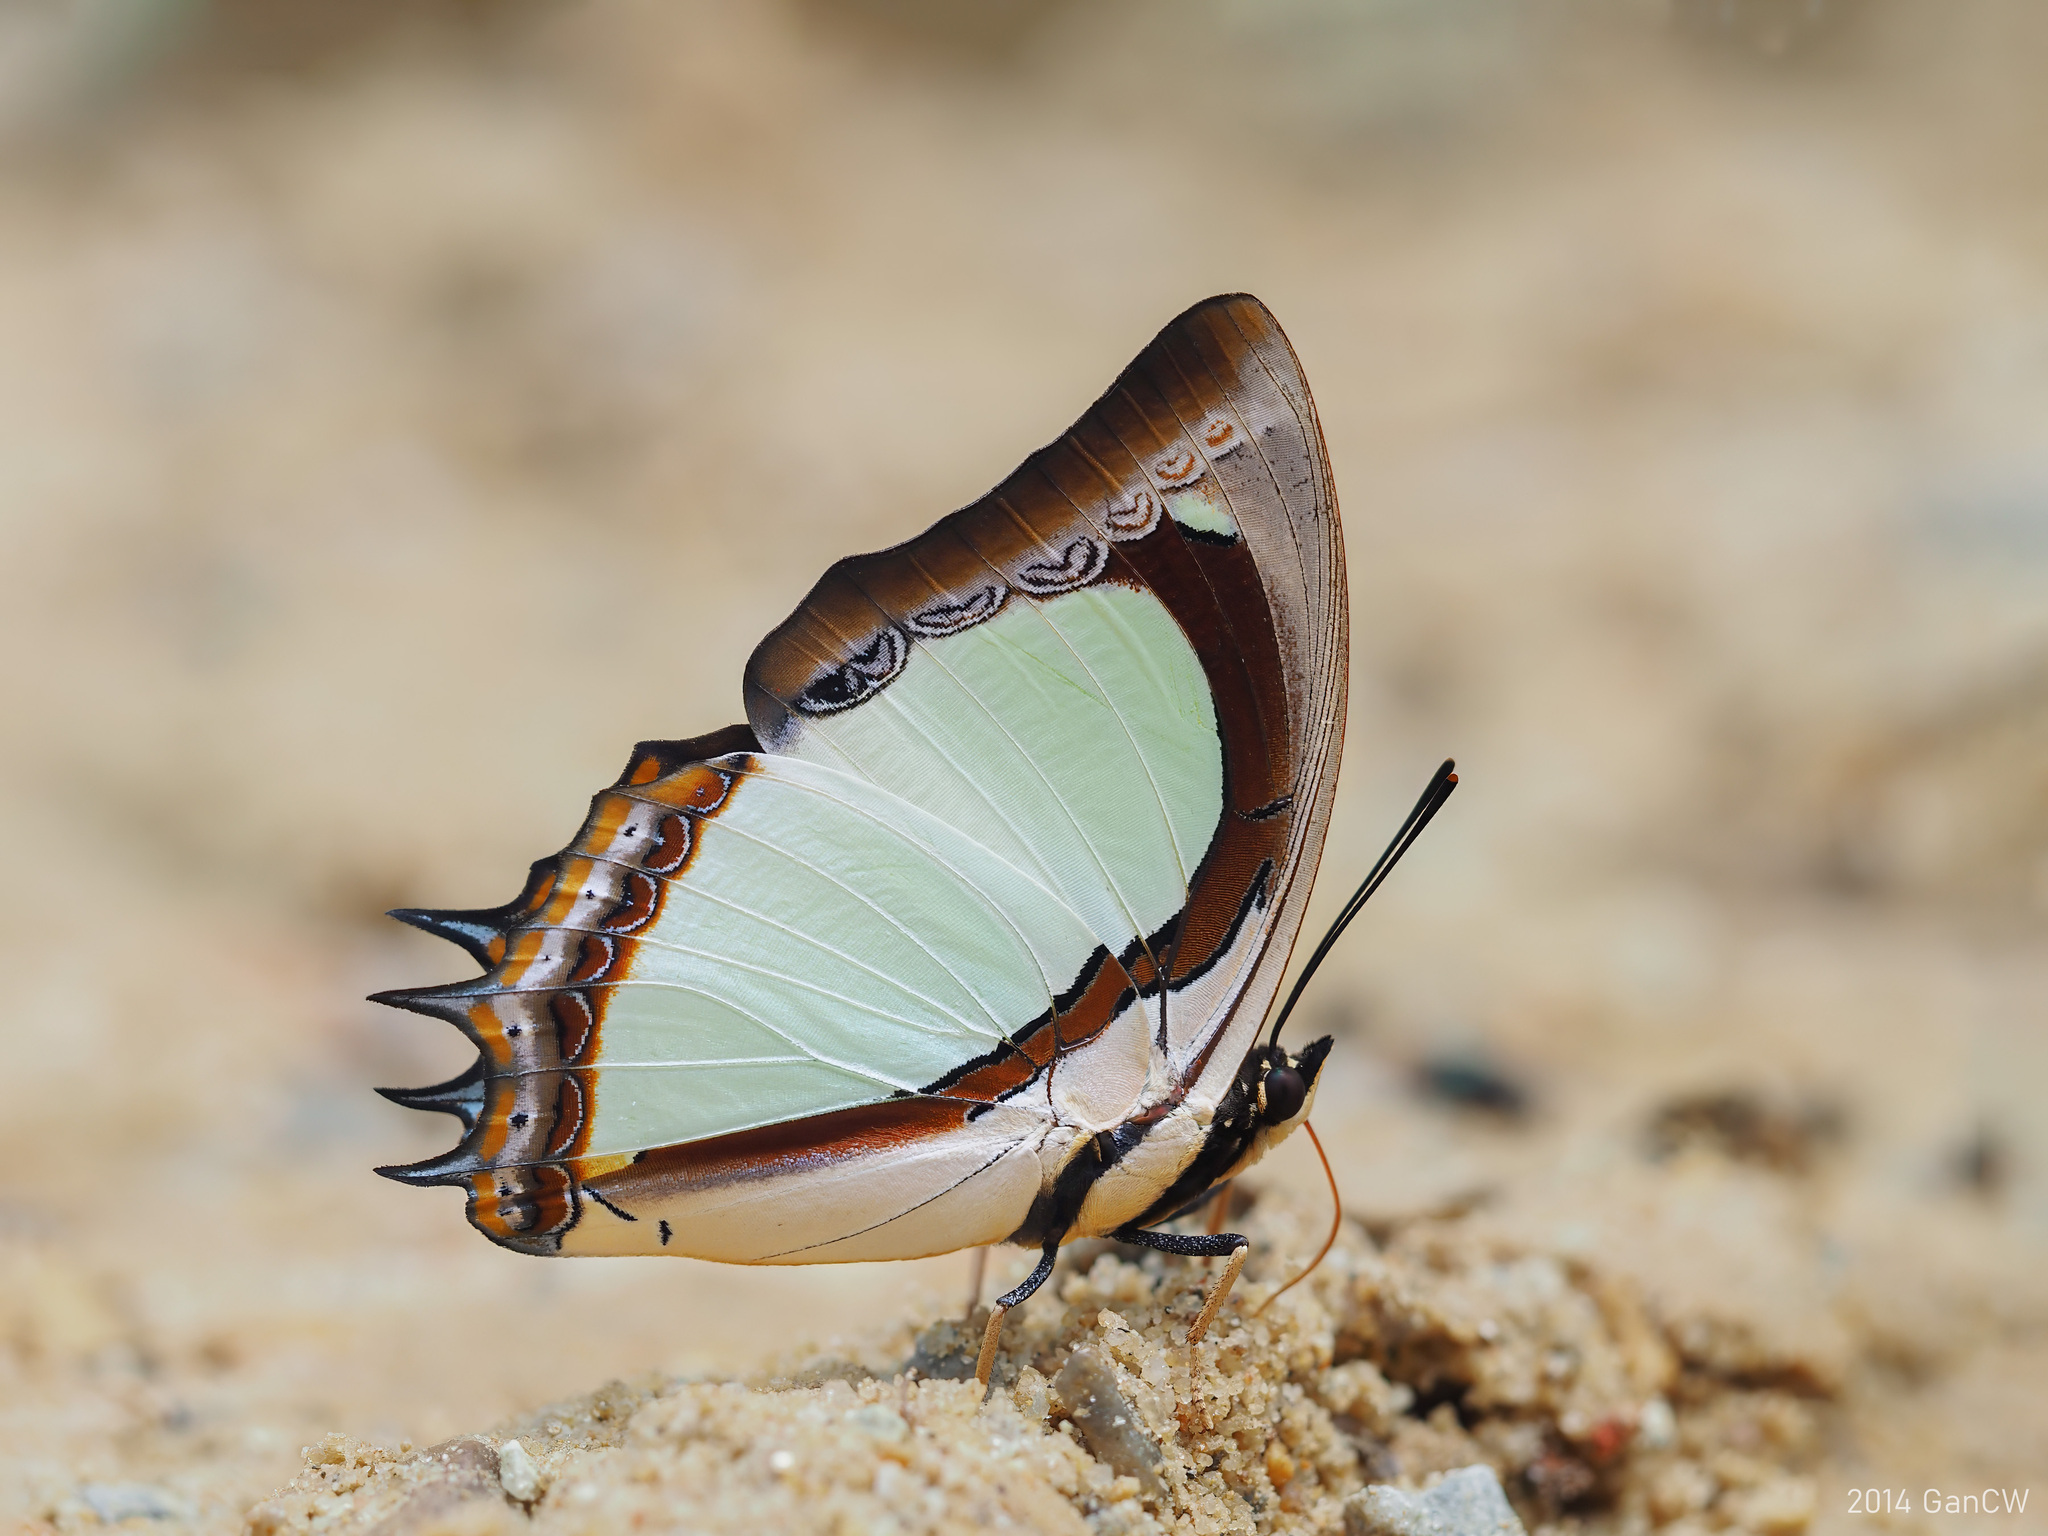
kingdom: Animalia
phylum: Arthropoda
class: Insecta
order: Lepidoptera
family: Nymphalidae
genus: Polyura
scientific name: Polyura jalysus
